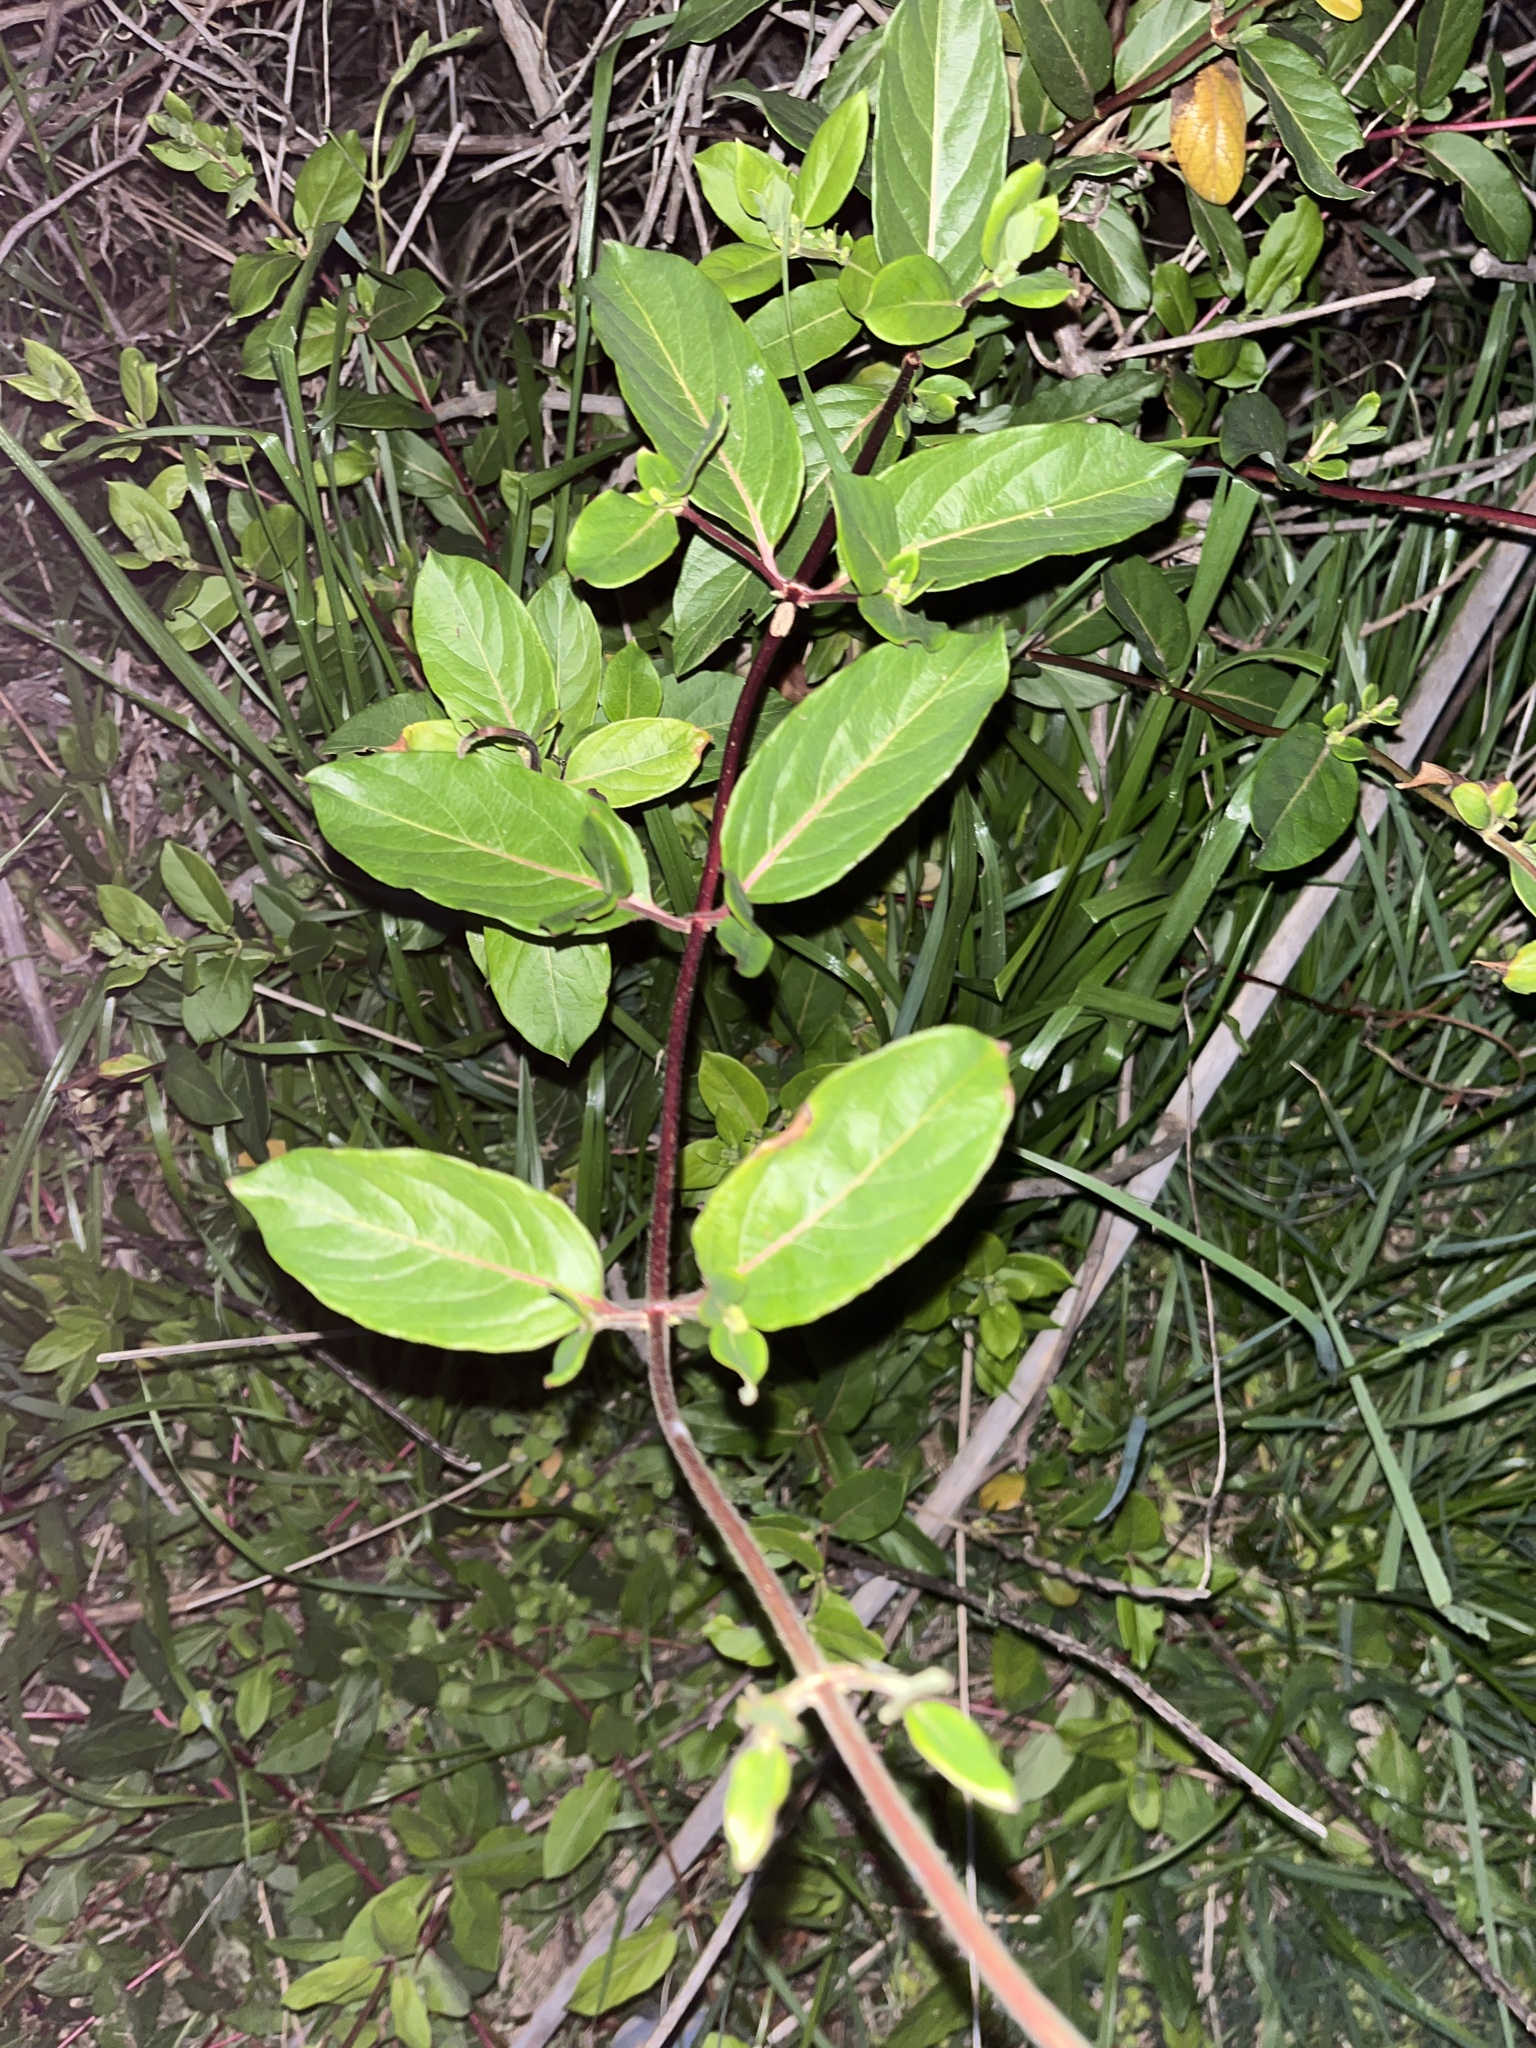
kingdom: Plantae
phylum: Tracheophyta
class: Magnoliopsida
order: Dipsacales
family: Caprifoliaceae
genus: Lonicera
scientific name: Lonicera japonica
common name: Japanese honeysuckle
